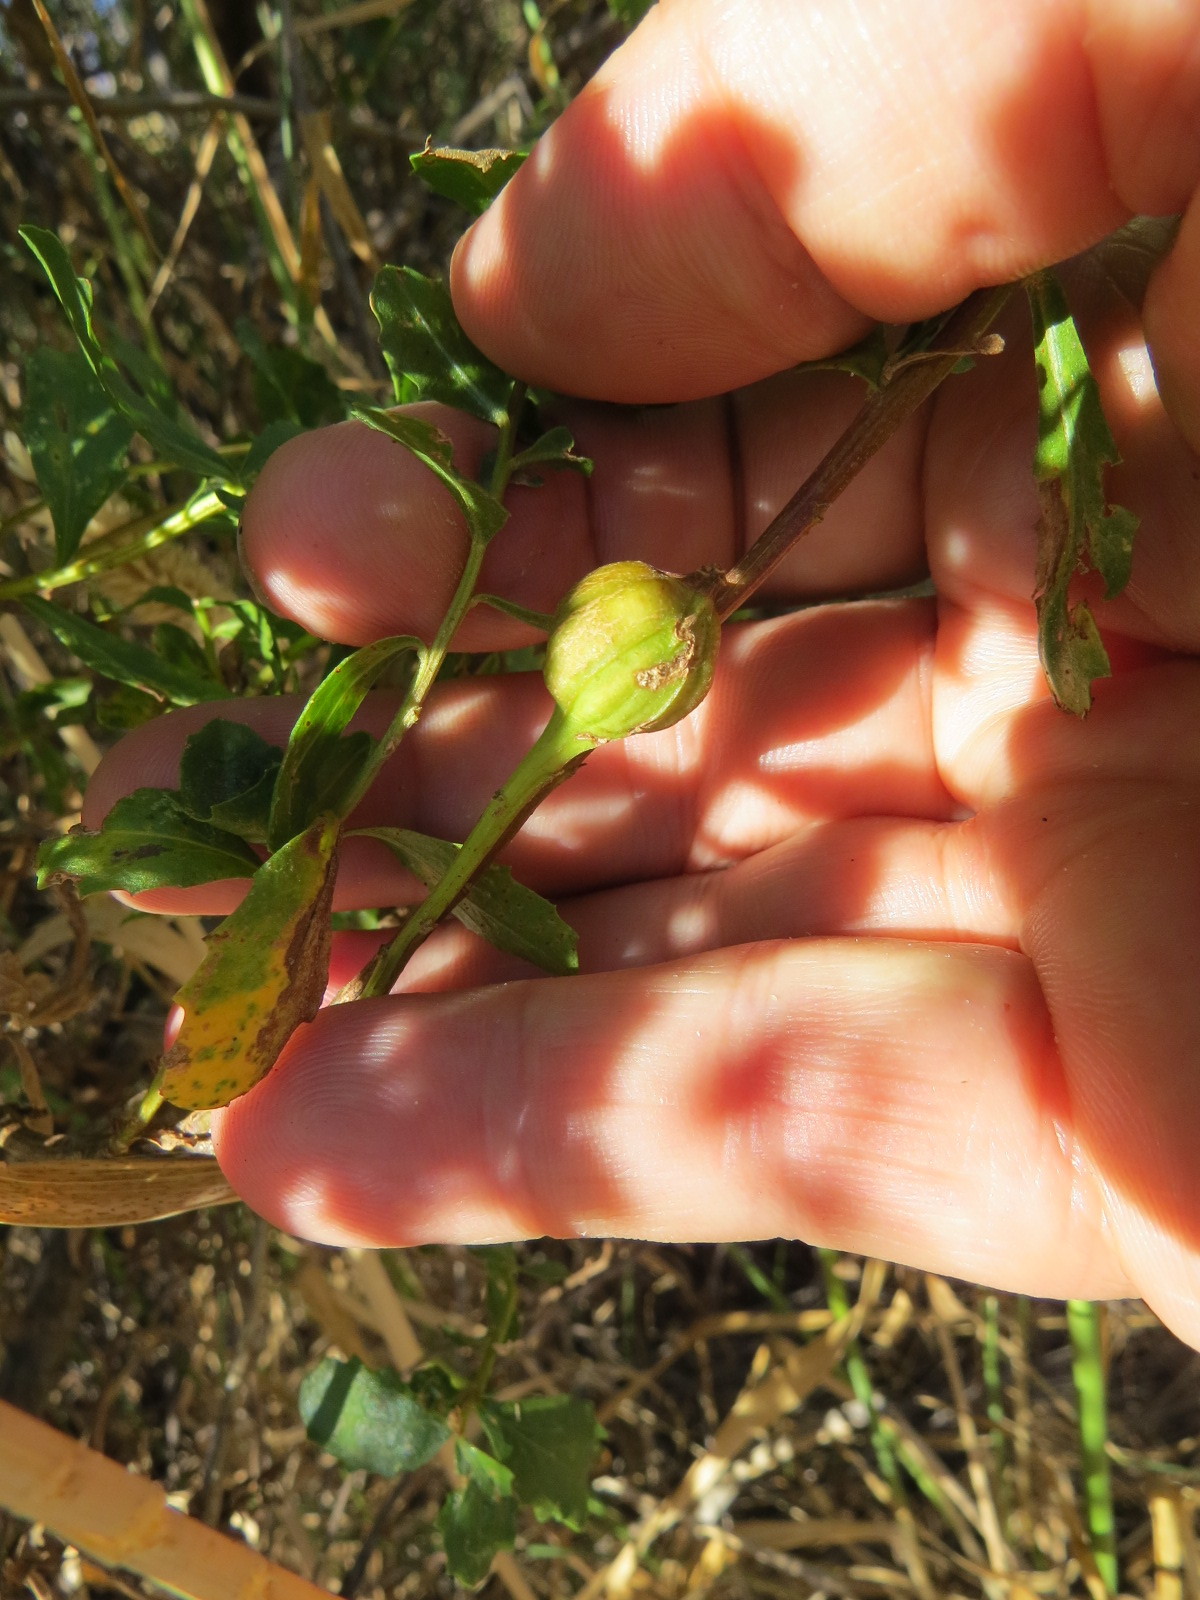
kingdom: Animalia
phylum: Arthropoda
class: Insecta
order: Lepidoptera
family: Gelechiidae
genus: Gnorimoschema
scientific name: Gnorimoschema baccharisella
